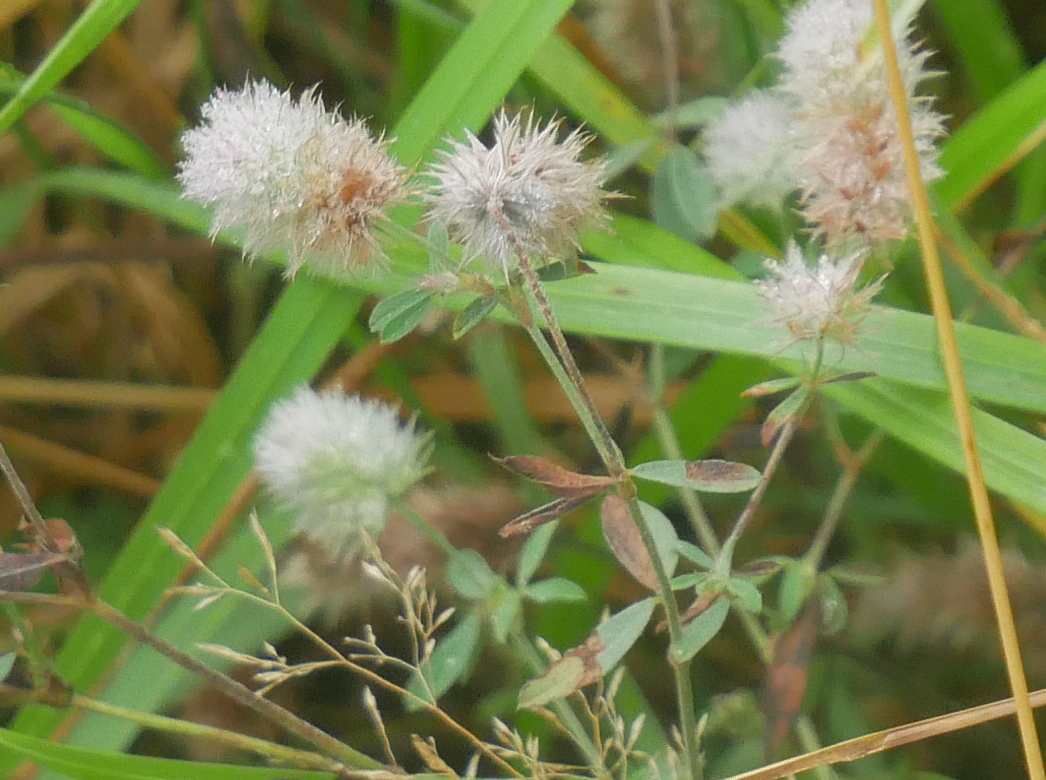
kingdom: Plantae
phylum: Tracheophyta
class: Magnoliopsida
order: Fabales
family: Fabaceae
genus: Trifolium
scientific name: Trifolium arvense
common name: Hare's-foot clover
